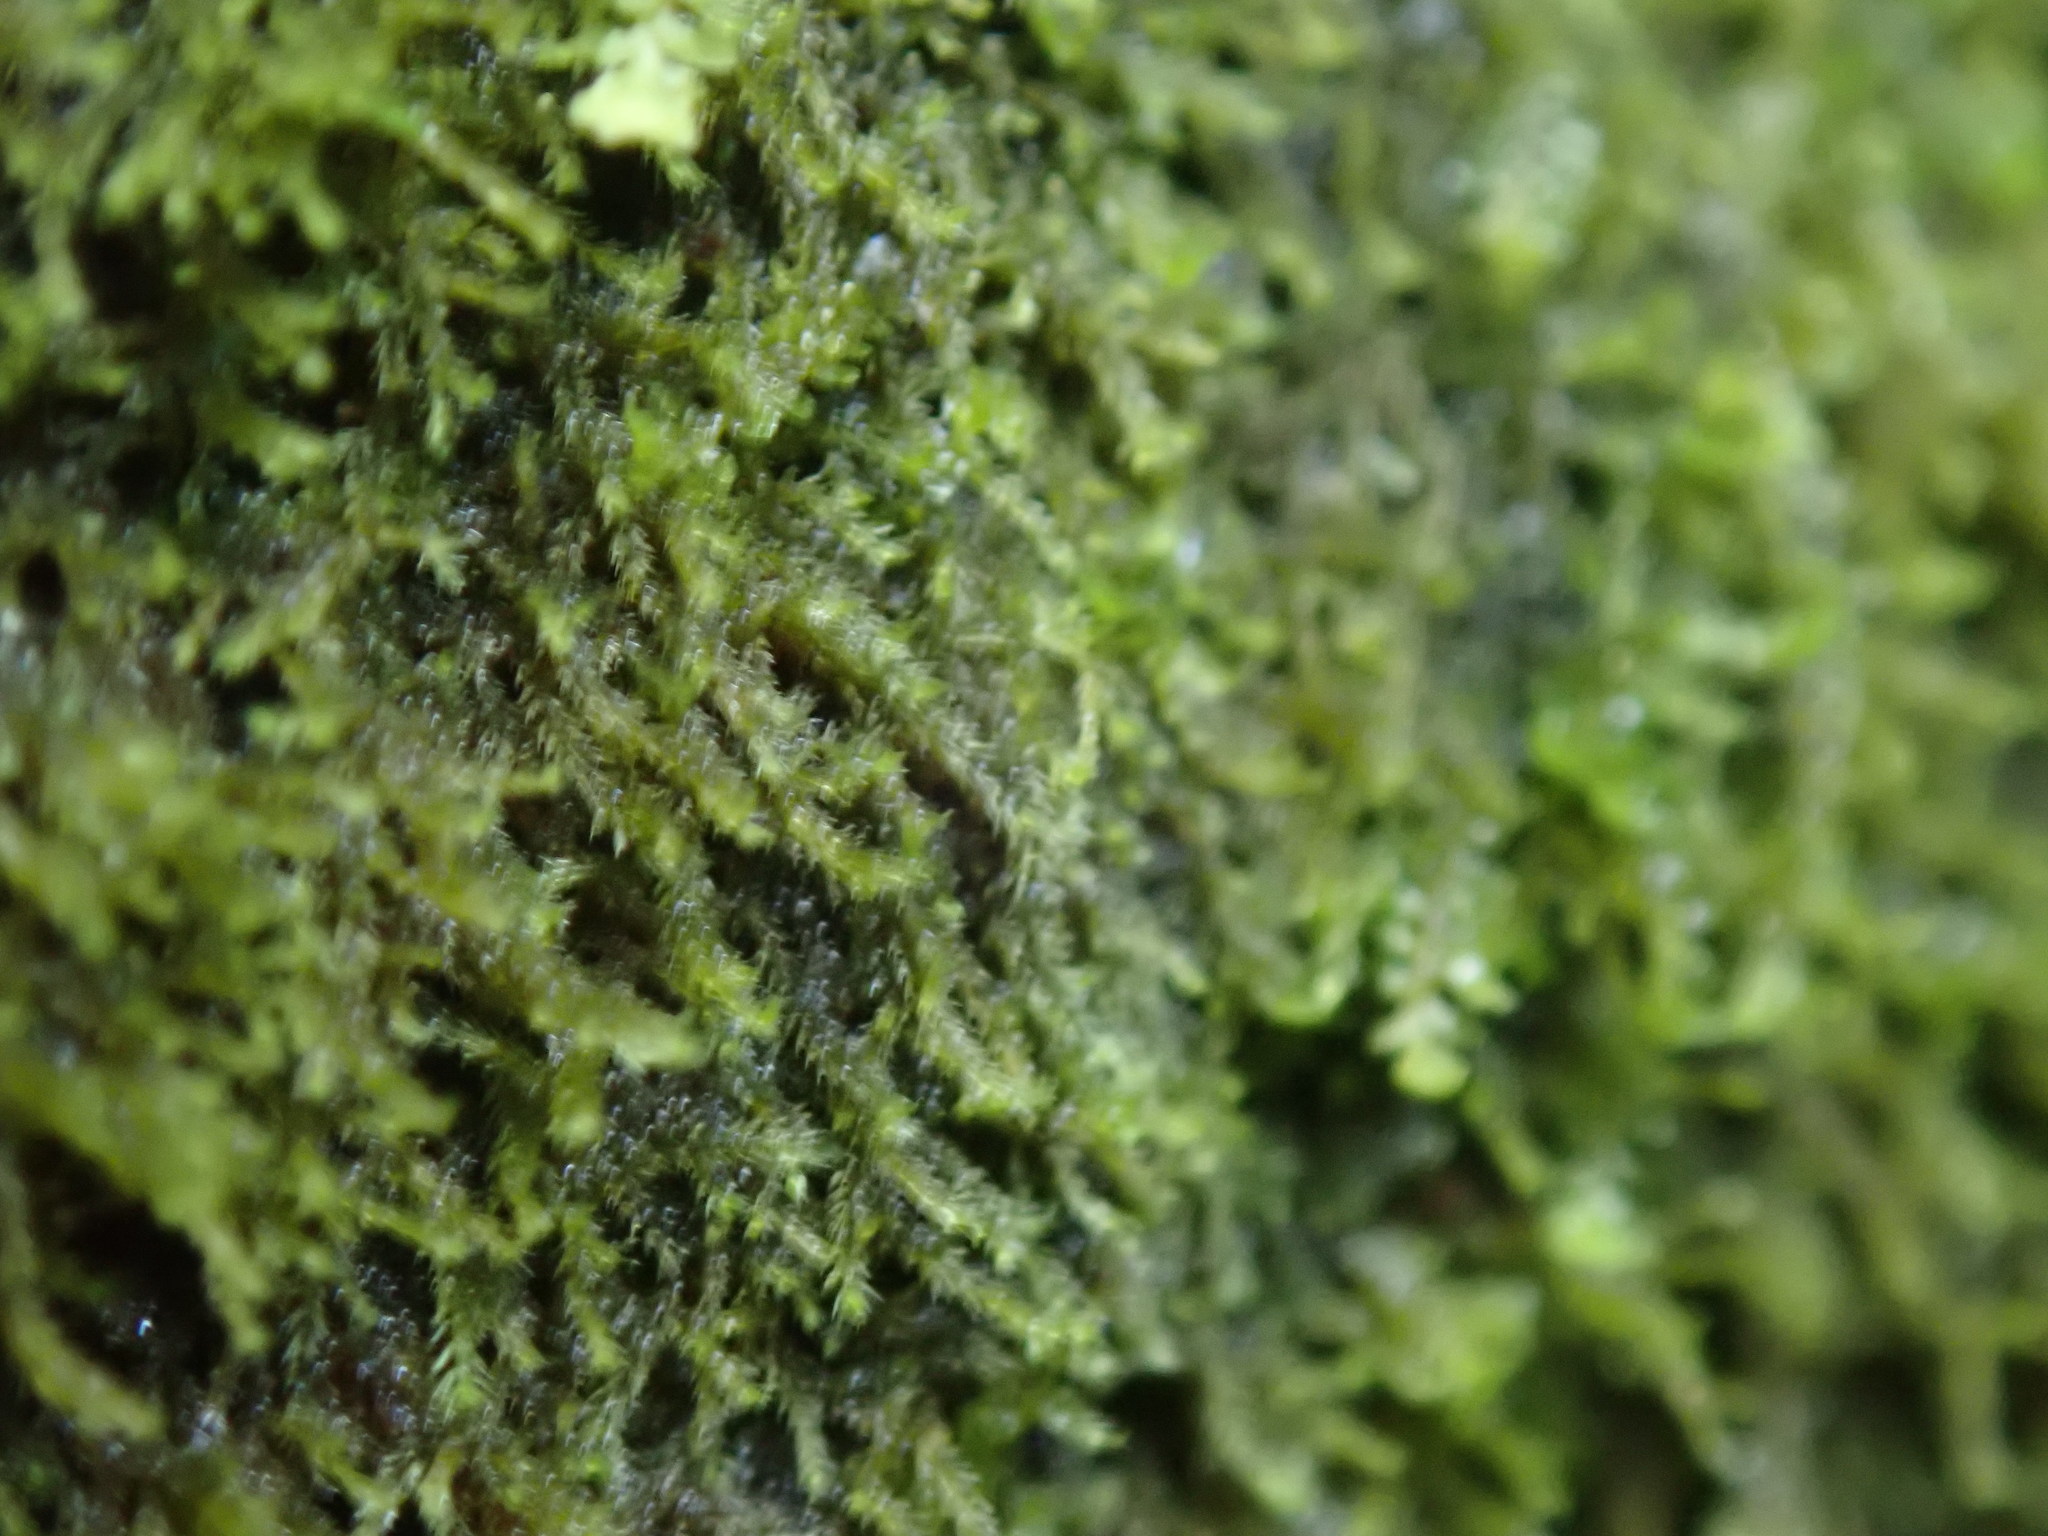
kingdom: Plantae
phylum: Marchantiophyta
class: Jungermanniopsida
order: Jungermanniales
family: Blepharostomataceae
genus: Blepharostoma
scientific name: Blepharostoma trichophyllum
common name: Hairy threadwort
